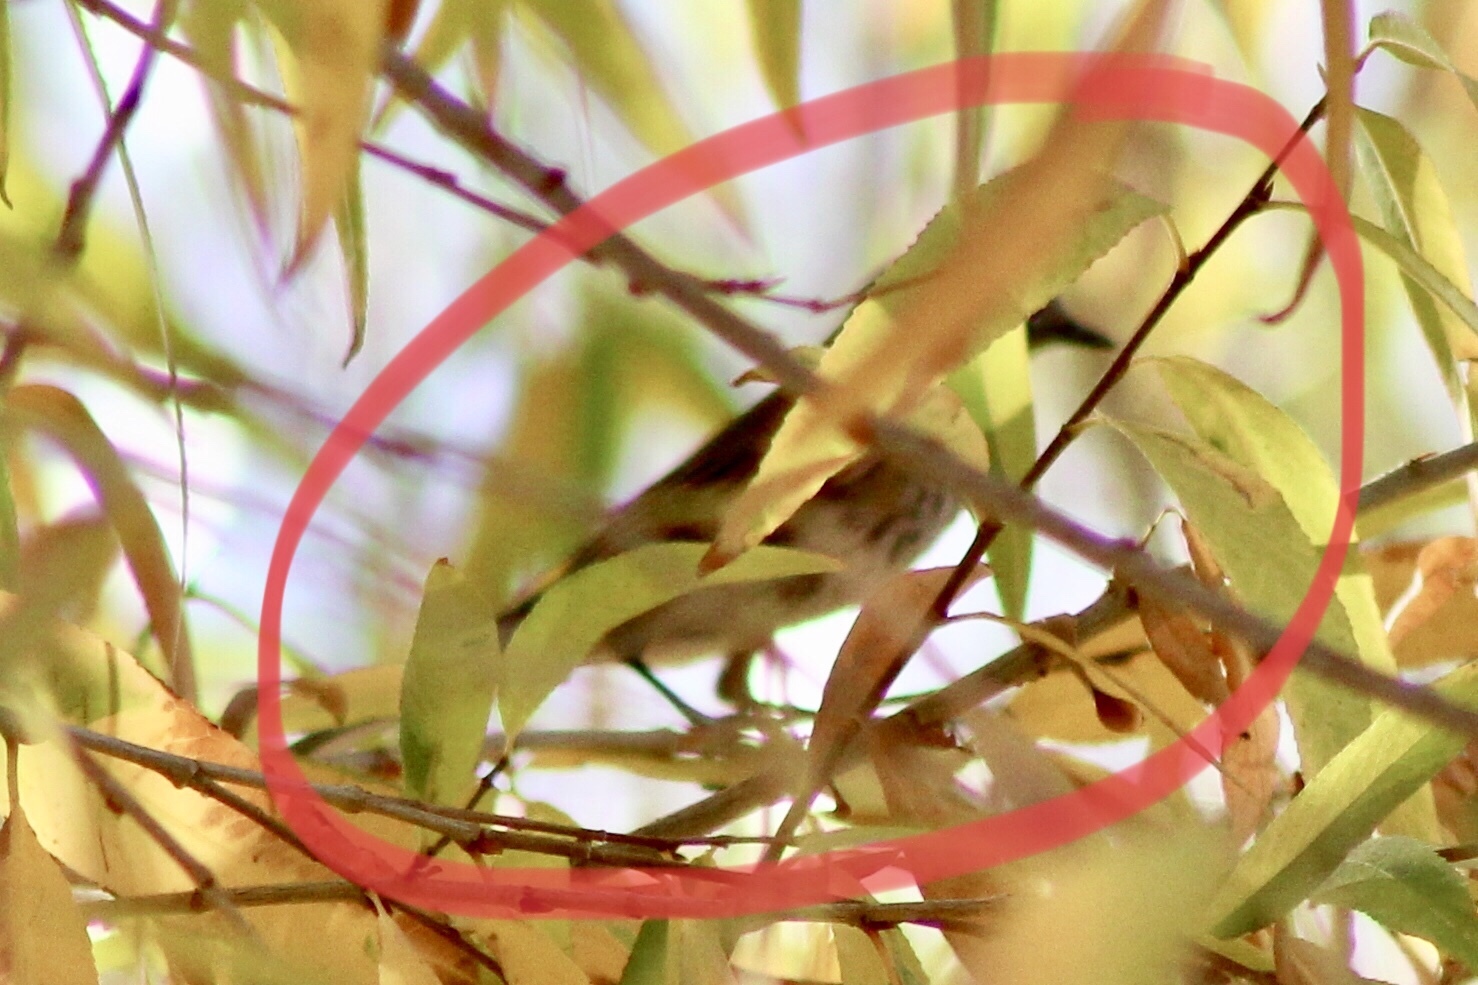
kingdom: Animalia
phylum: Chordata
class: Aves
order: Passeriformes
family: Parulidae
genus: Setophaga
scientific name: Setophaga coronata
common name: Myrtle warbler
